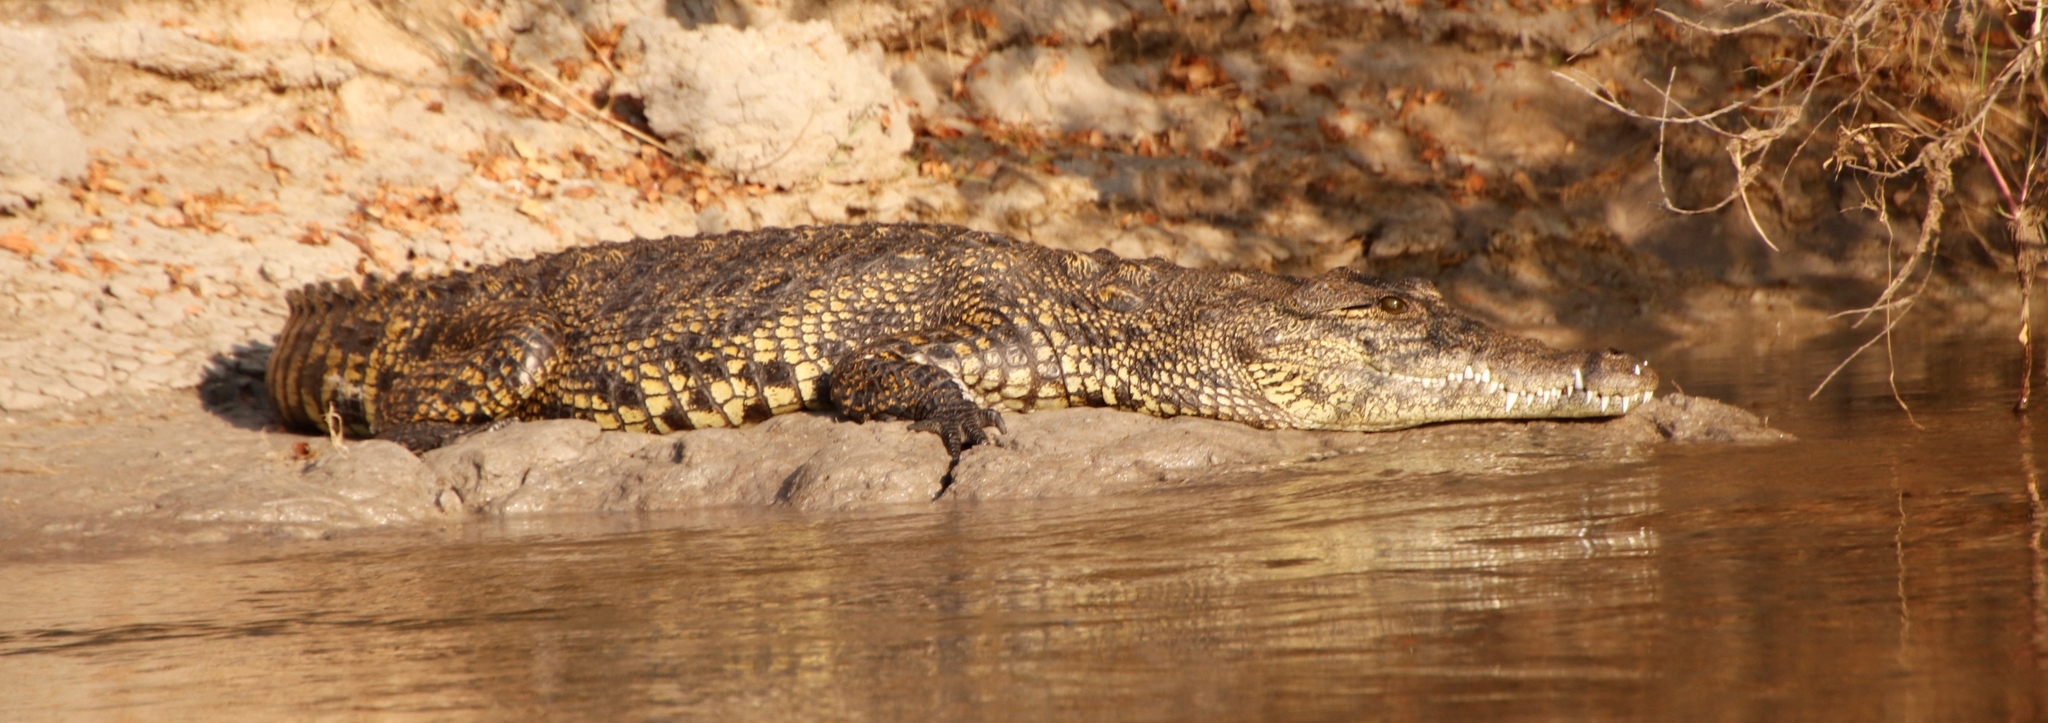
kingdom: Animalia
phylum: Chordata
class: Crocodylia
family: Crocodylidae
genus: Crocodylus
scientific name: Crocodylus niloticus
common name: Nile crocodile
